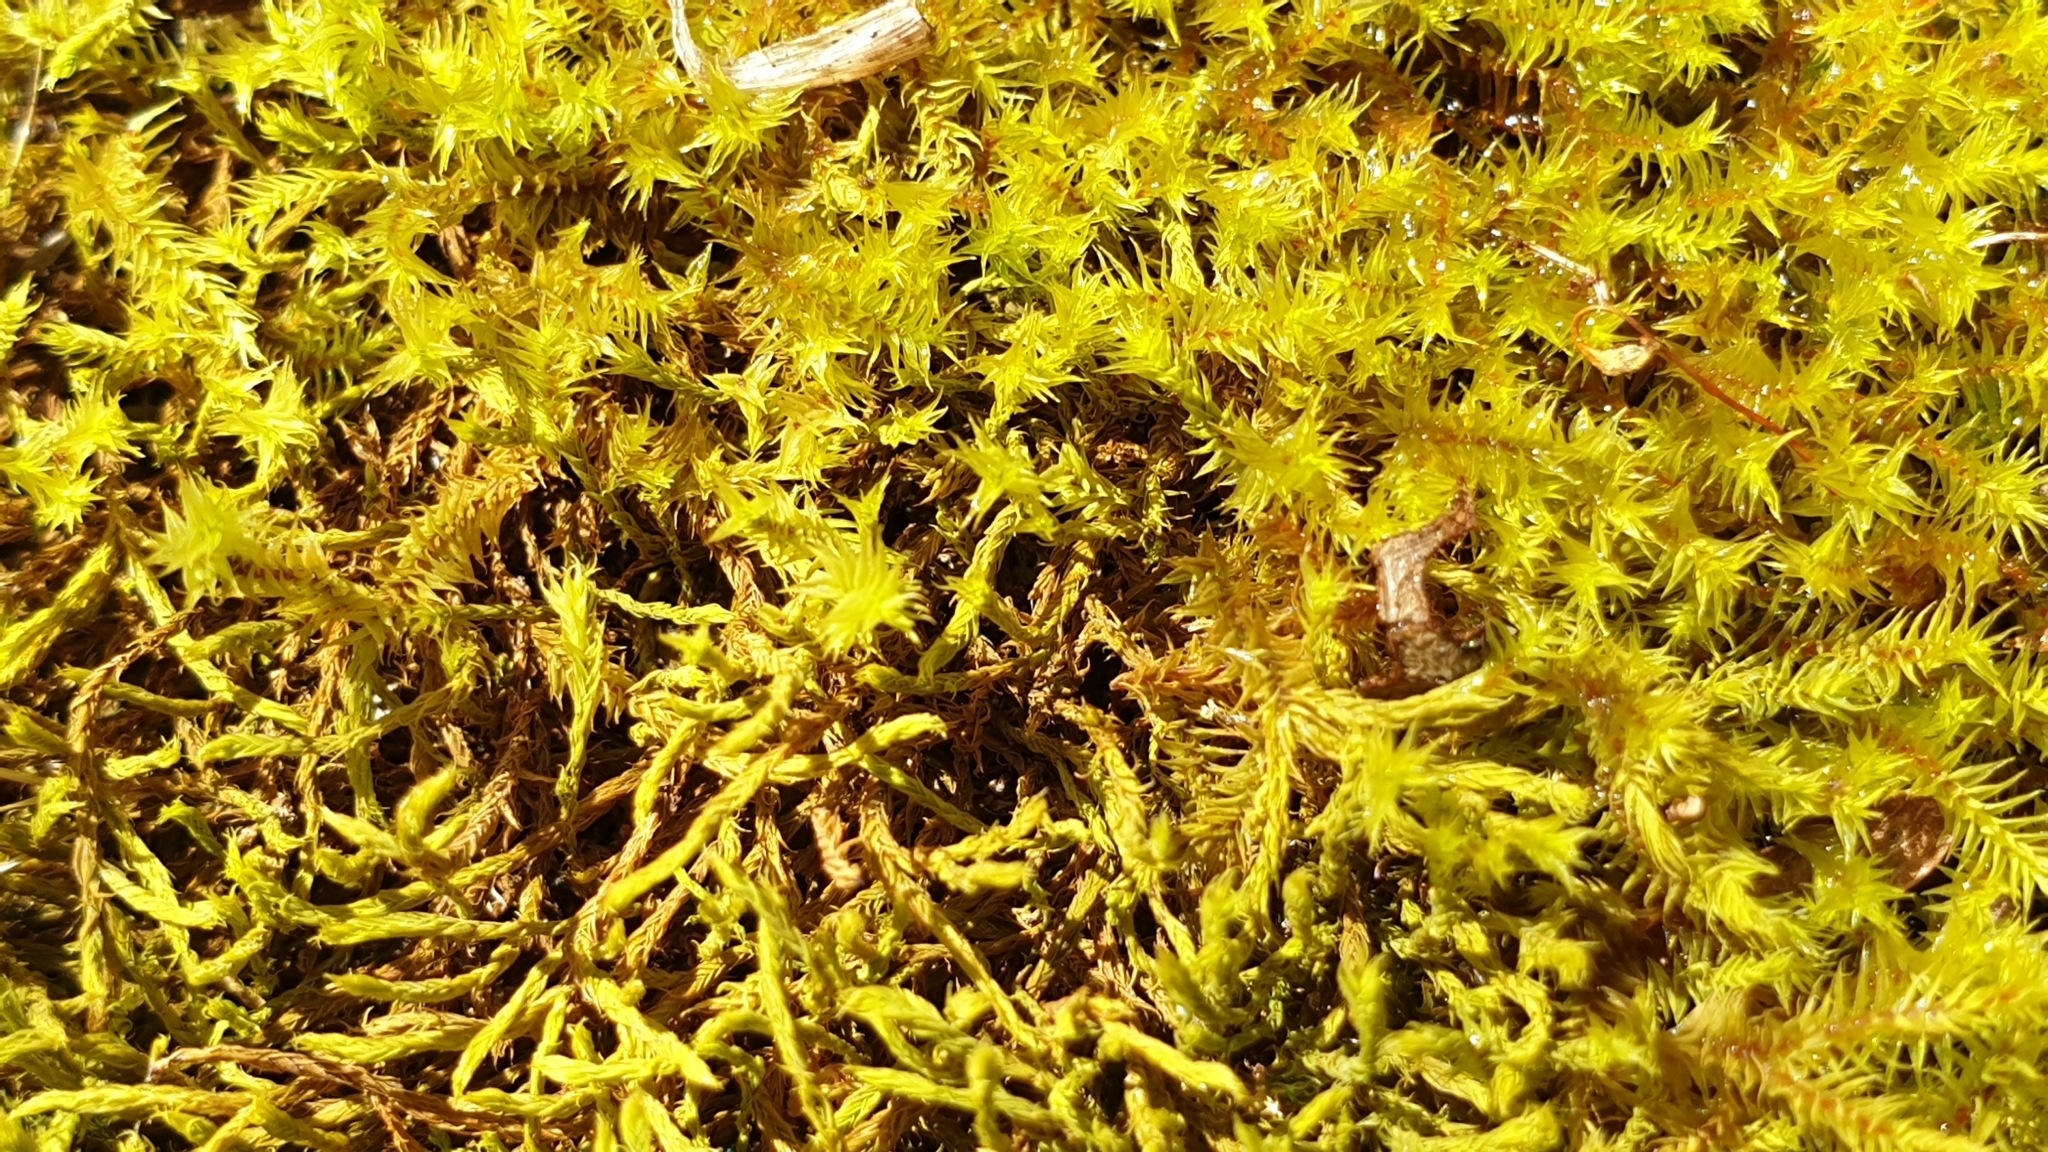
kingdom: Plantae
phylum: Bryophyta
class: Bryopsida
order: Pottiales
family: Pottiaceae
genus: Triquetrella
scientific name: Triquetrella papillata
